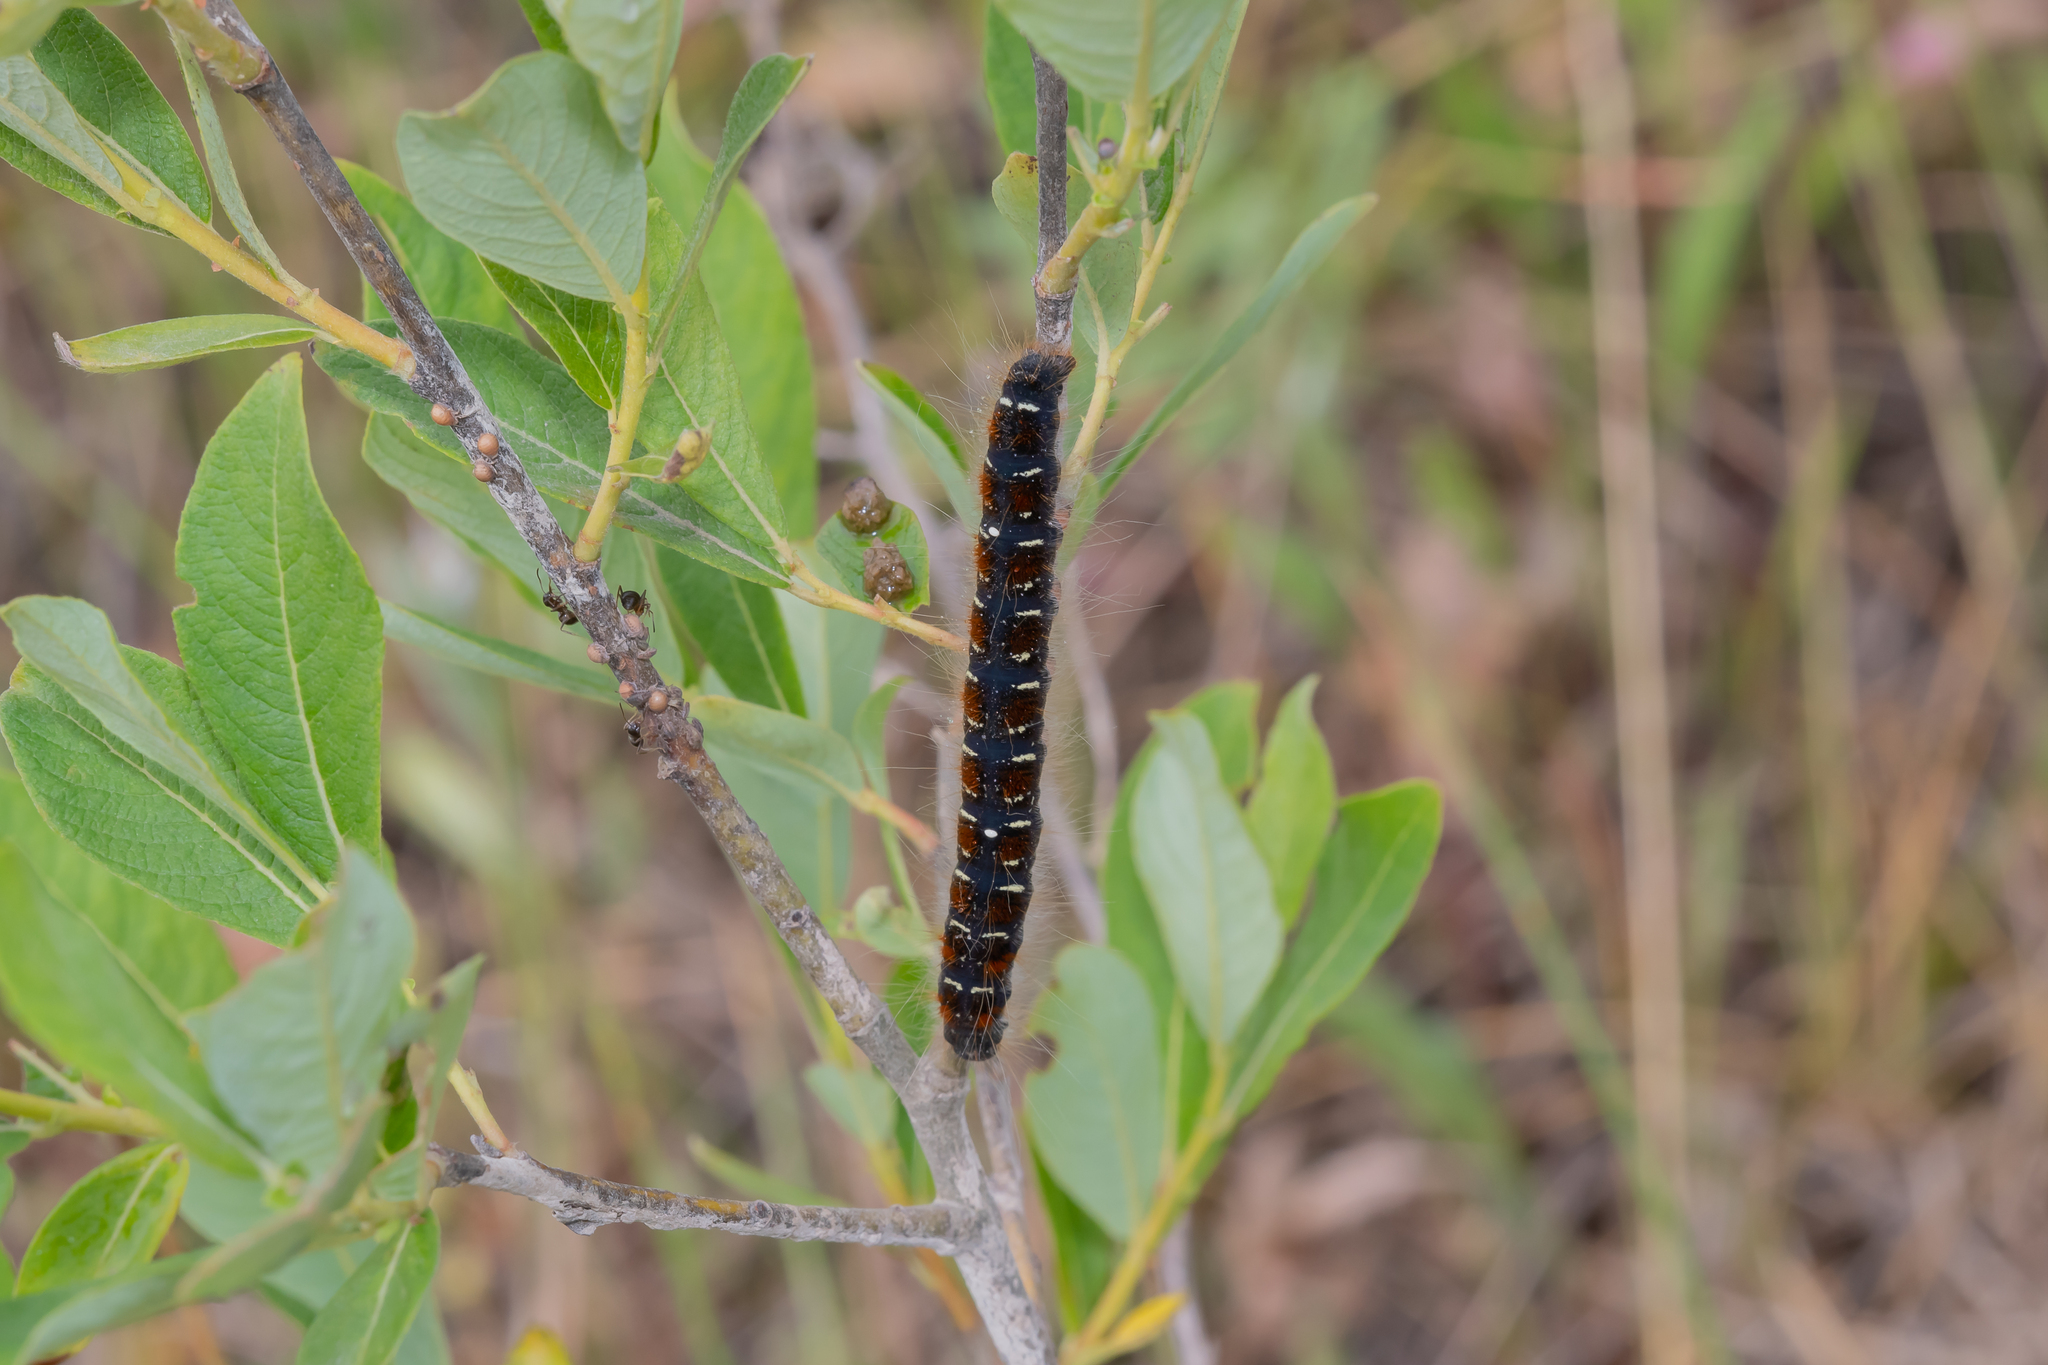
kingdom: Animalia
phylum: Arthropoda
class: Insecta
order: Lepidoptera
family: Lasiocampidae
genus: Eriogaster
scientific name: Eriogaster lanestris
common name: Small eggar
